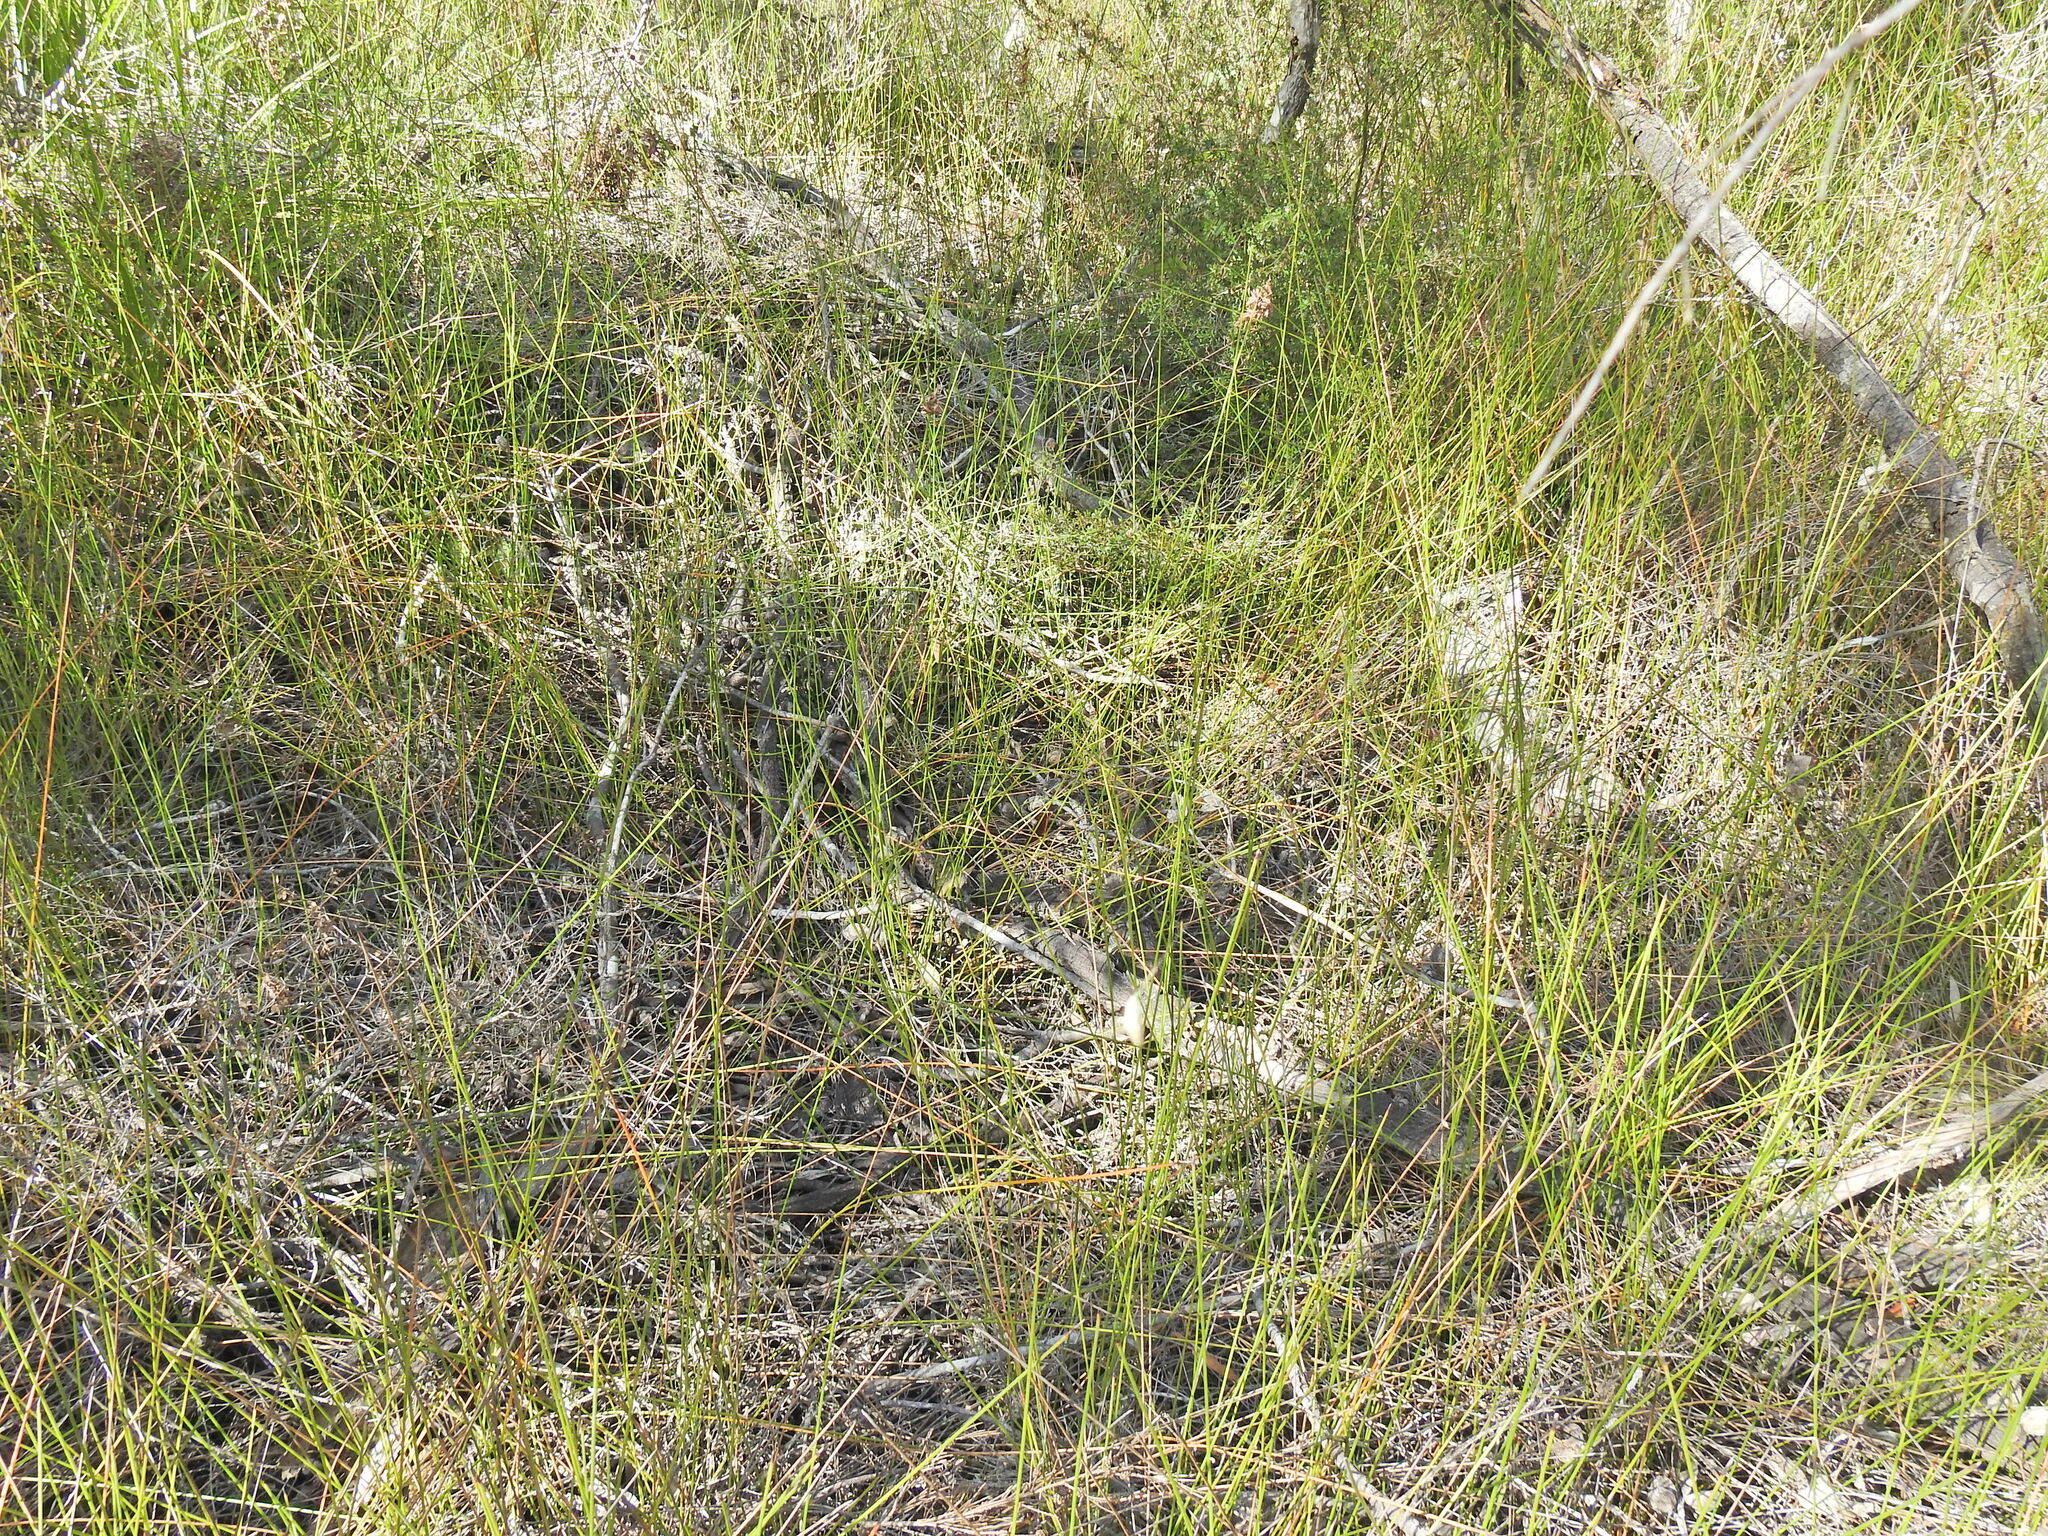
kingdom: Plantae
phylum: Tracheophyta
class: Liliopsida
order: Poales
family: Cyperaceae
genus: Schoenus
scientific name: Schoenus brevifolius
